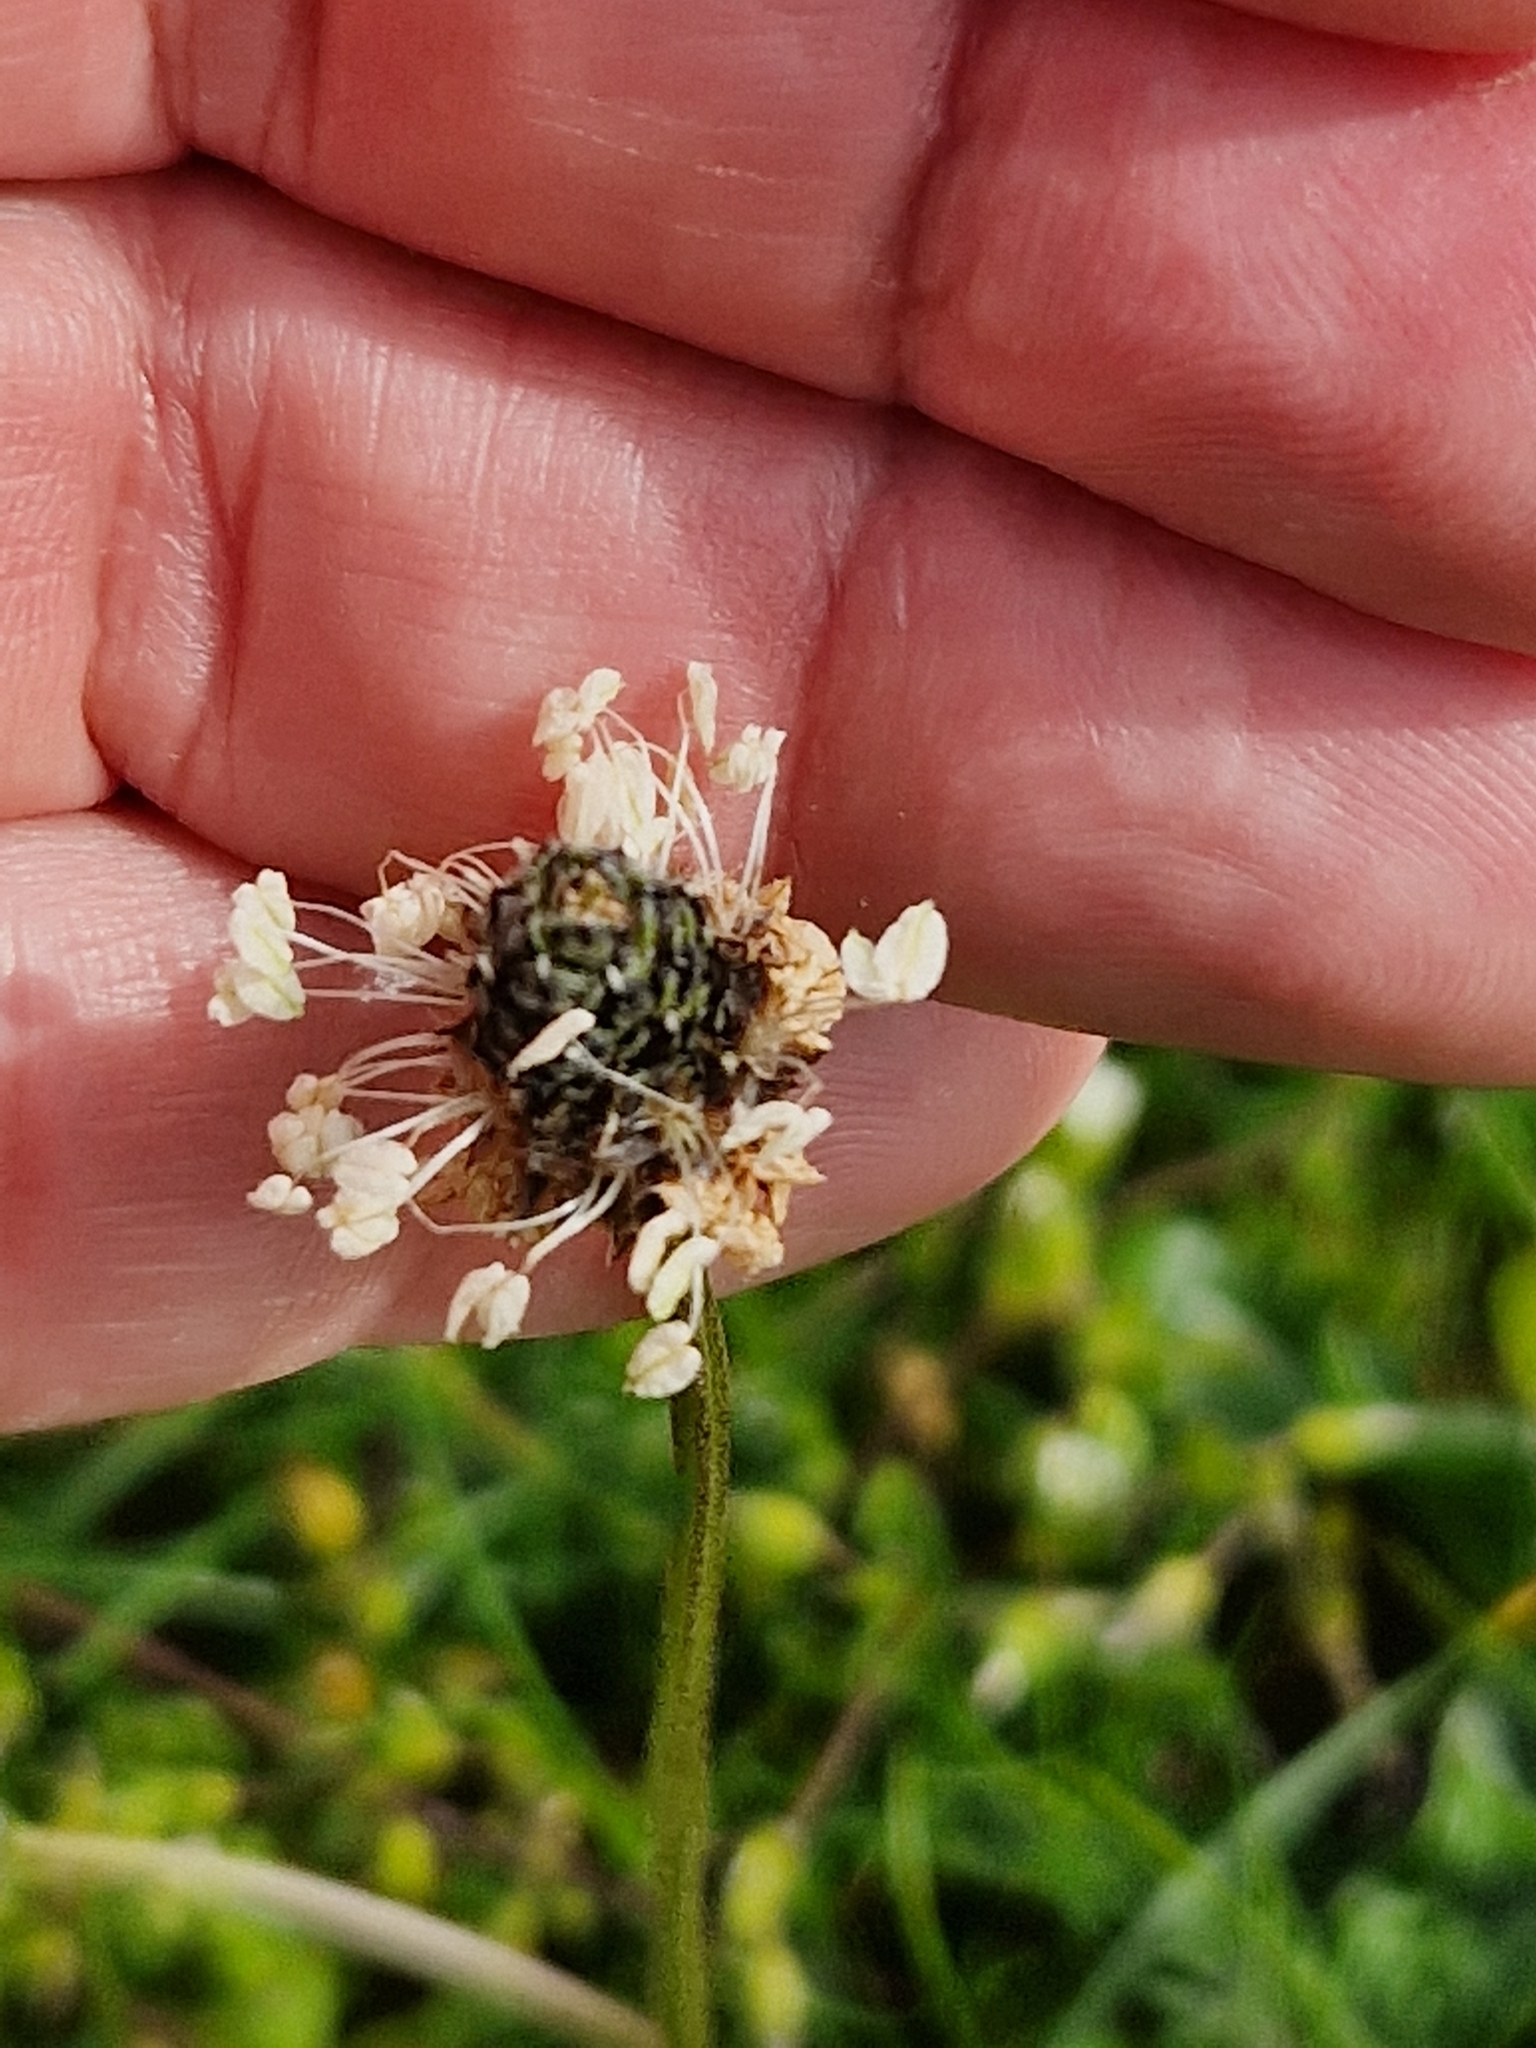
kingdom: Plantae
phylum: Tracheophyta
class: Magnoliopsida
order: Lamiales
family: Plantaginaceae
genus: Plantago
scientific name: Plantago lanceolata
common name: Ribwort plantain
